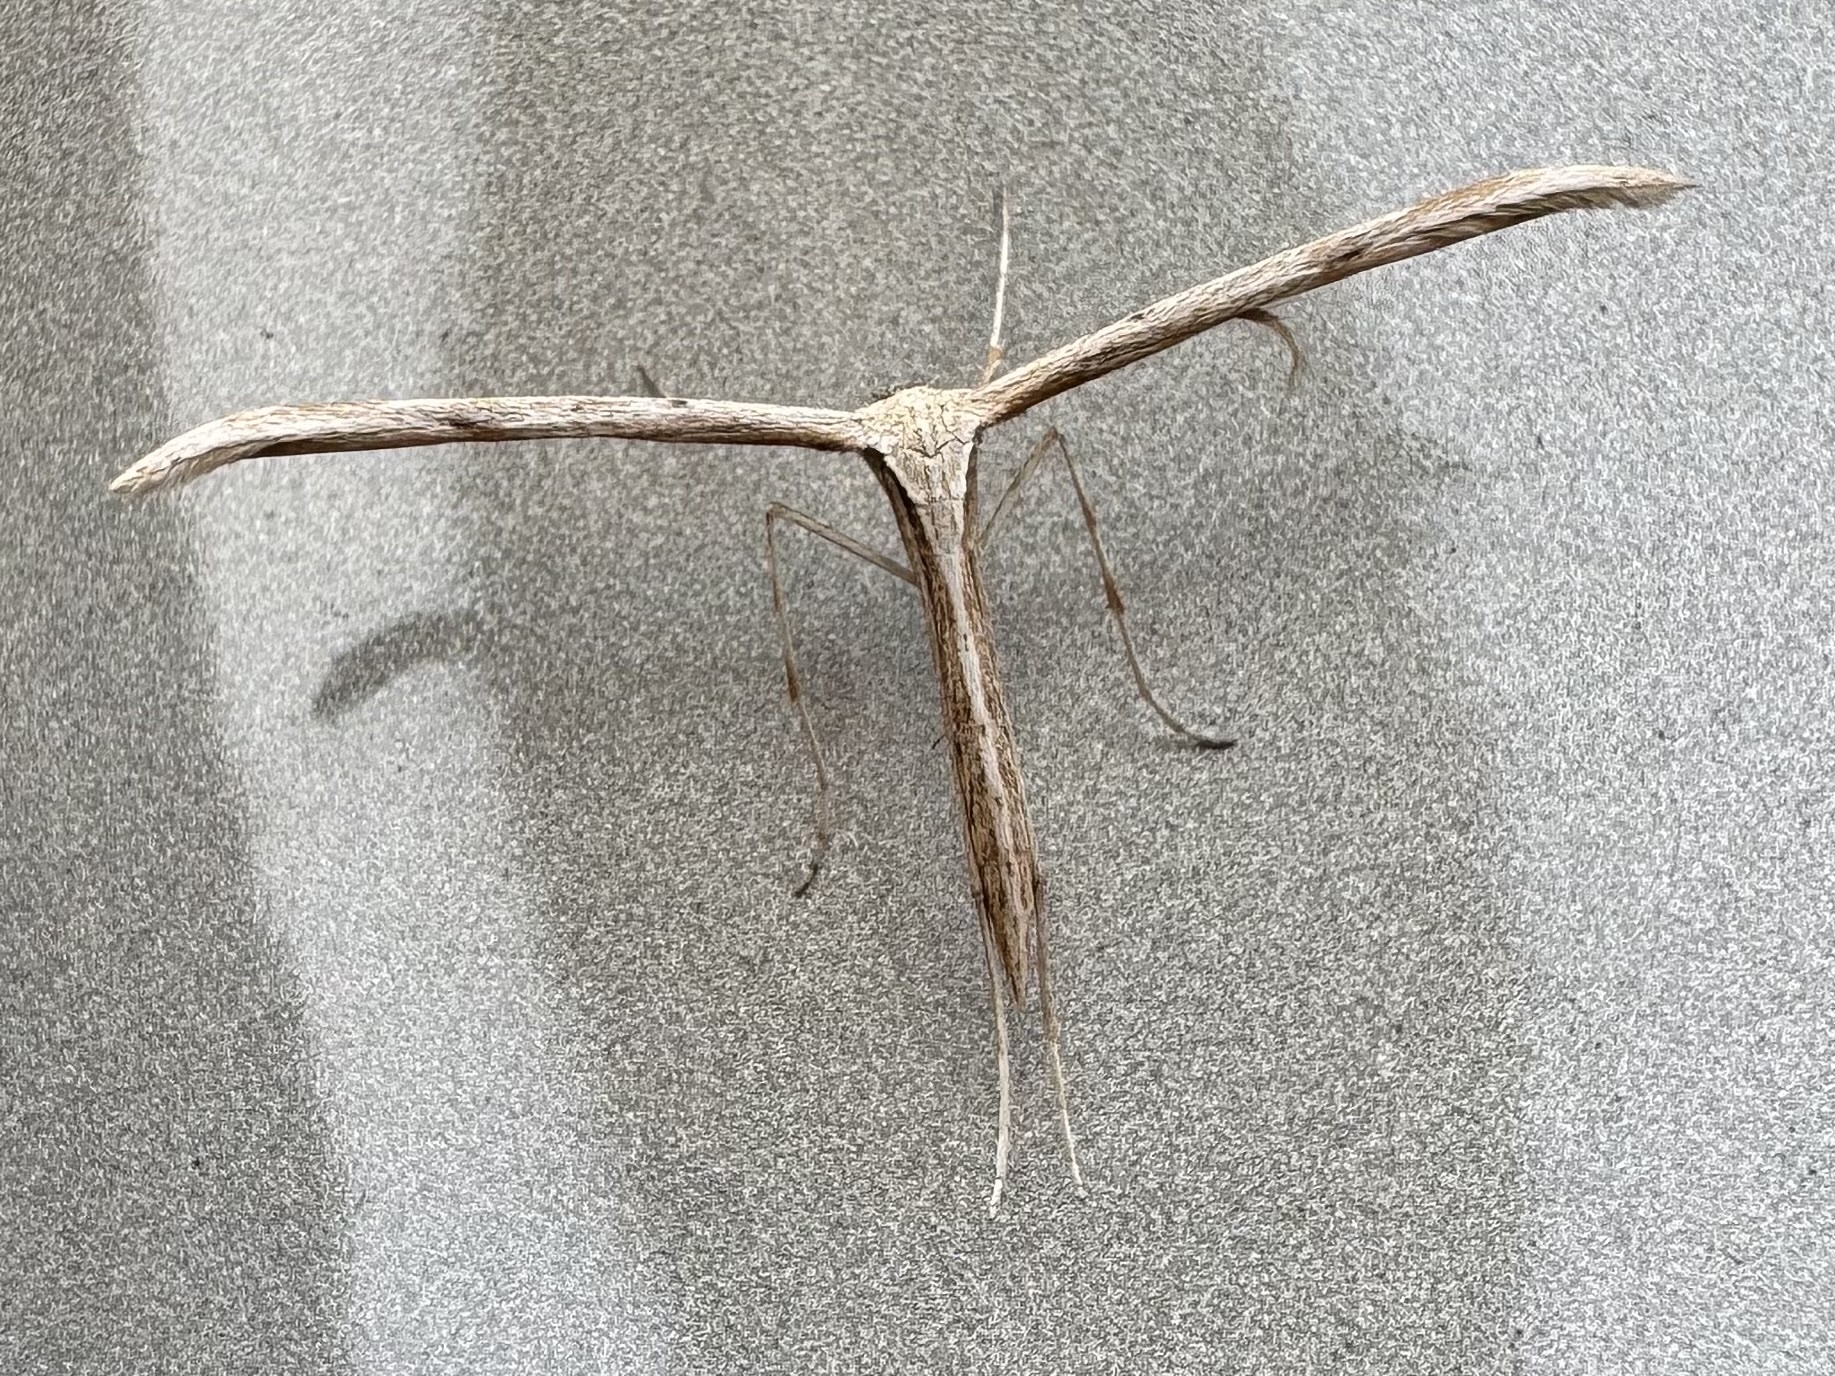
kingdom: Animalia
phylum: Arthropoda
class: Insecta
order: Lepidoptera
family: Pterophoridae
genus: Emmelina
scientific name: Emmelina monodactyla
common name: Common plume
